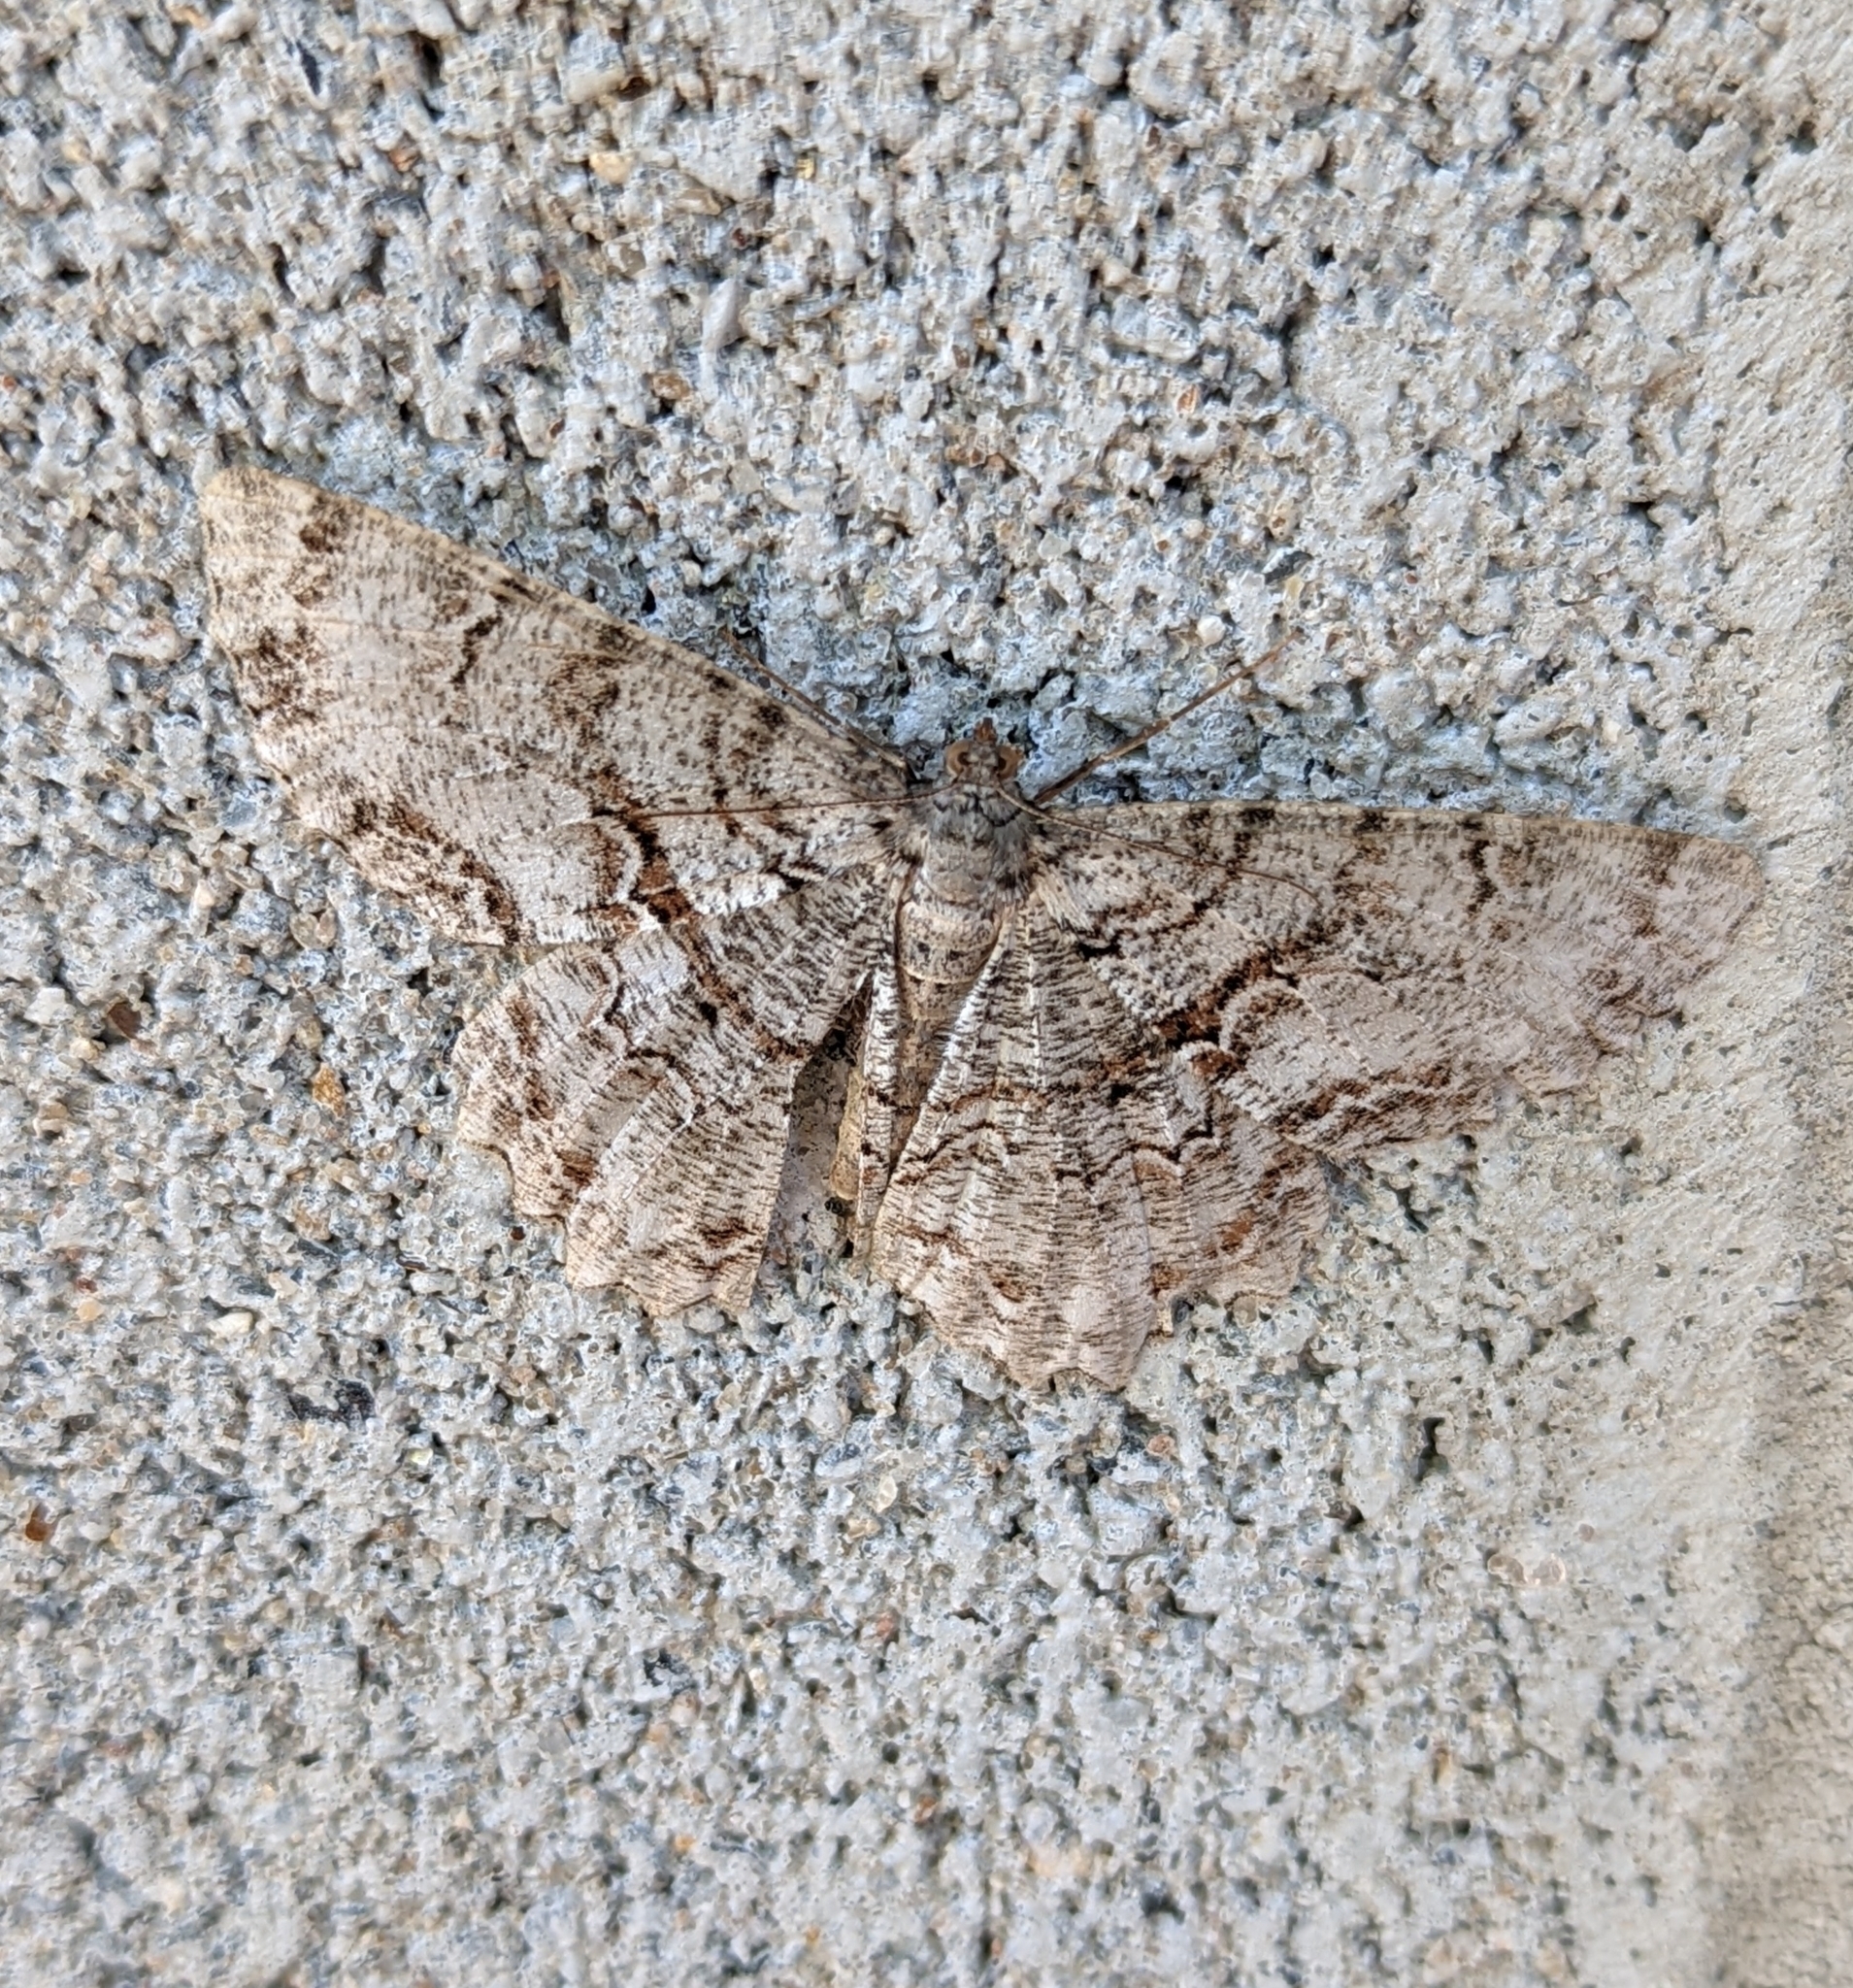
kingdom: Animalia
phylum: Arthropoda
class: Insecta
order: Lepidoptera
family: Geometridae
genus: Epimecis
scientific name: Epimecis hortaria
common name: Tulip-tree beauty
